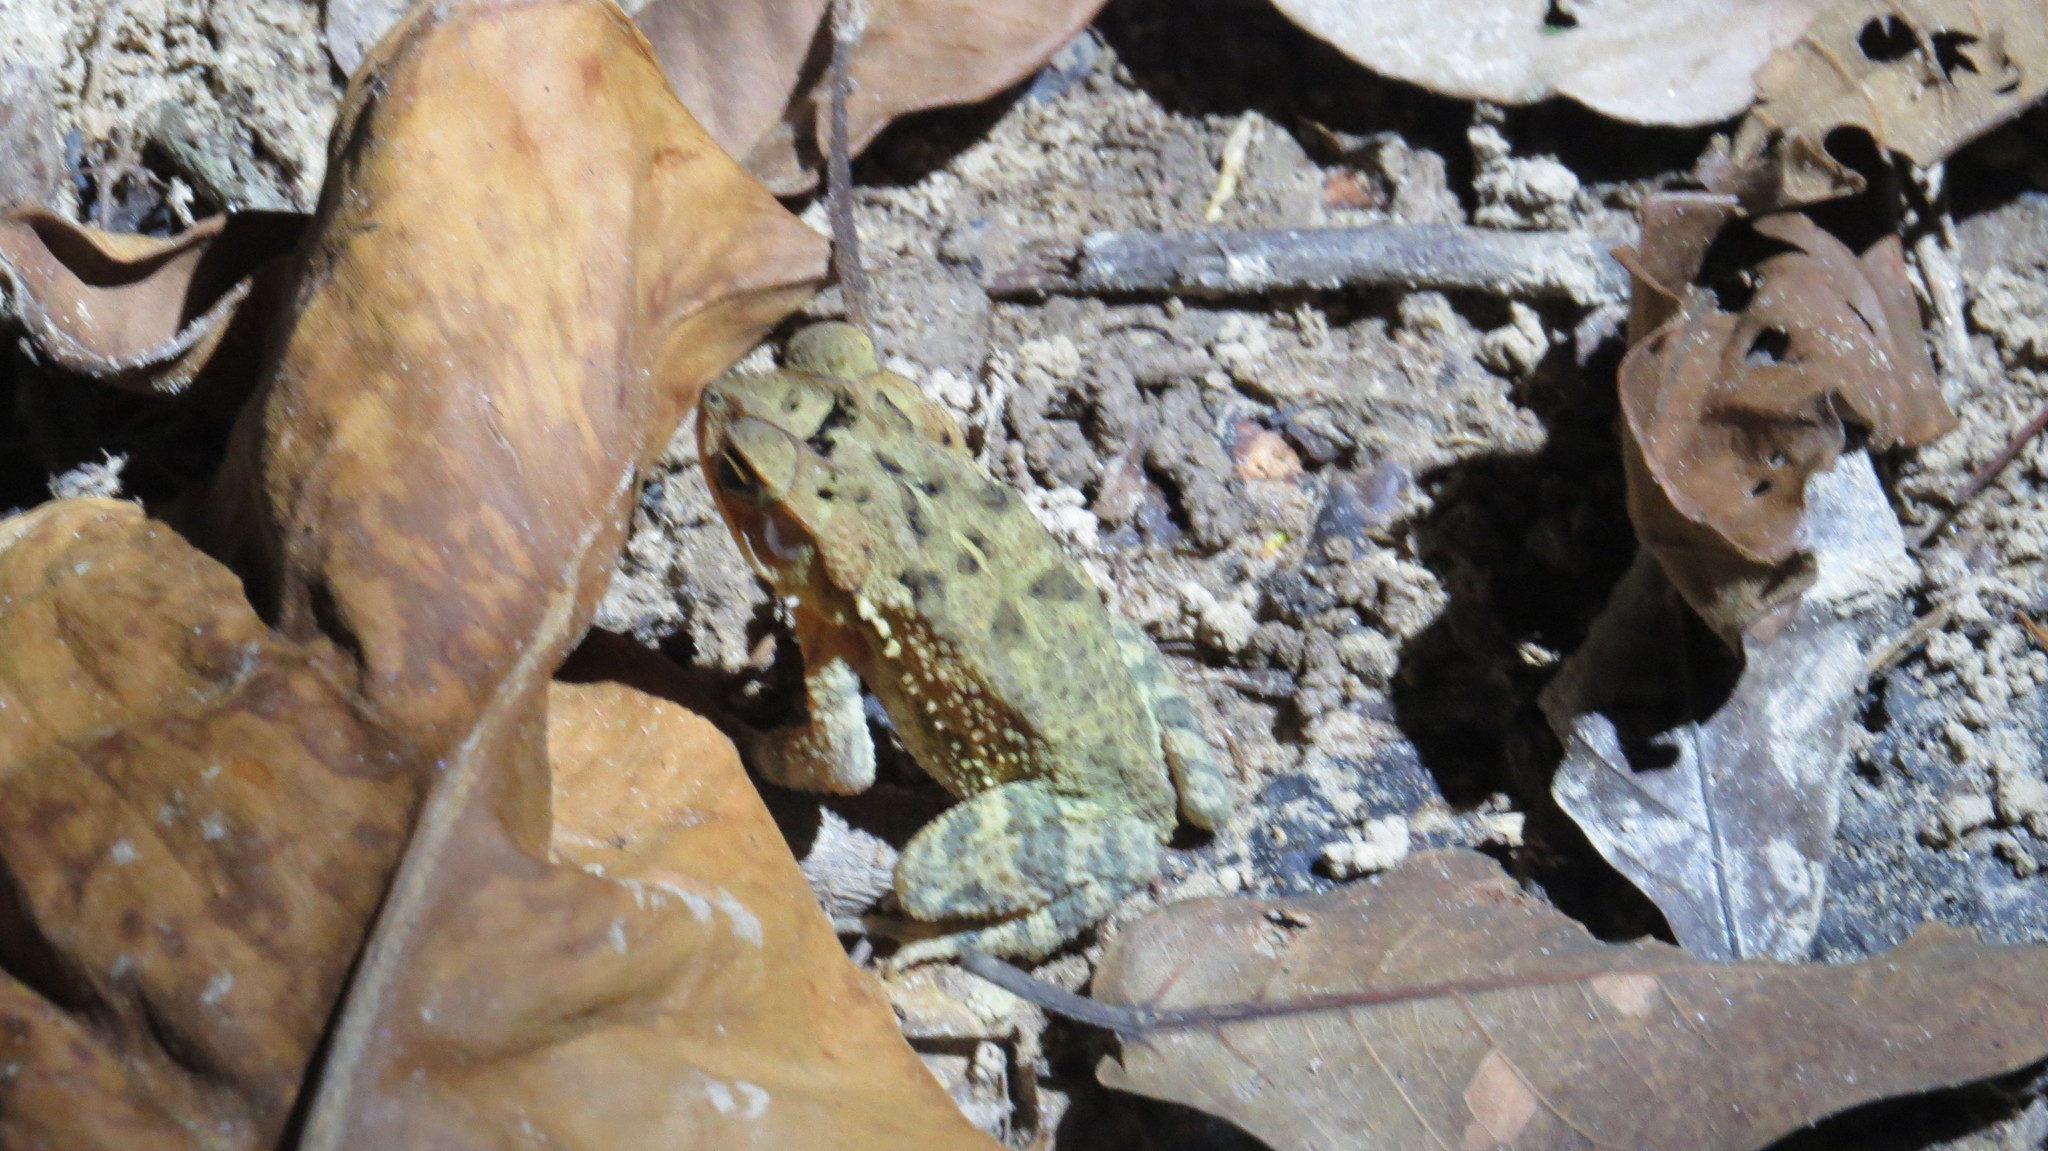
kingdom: Animalia
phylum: Chordata
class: Amphibia
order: Anura
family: Bufonidae
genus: Incilius
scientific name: Incilius valliceps
